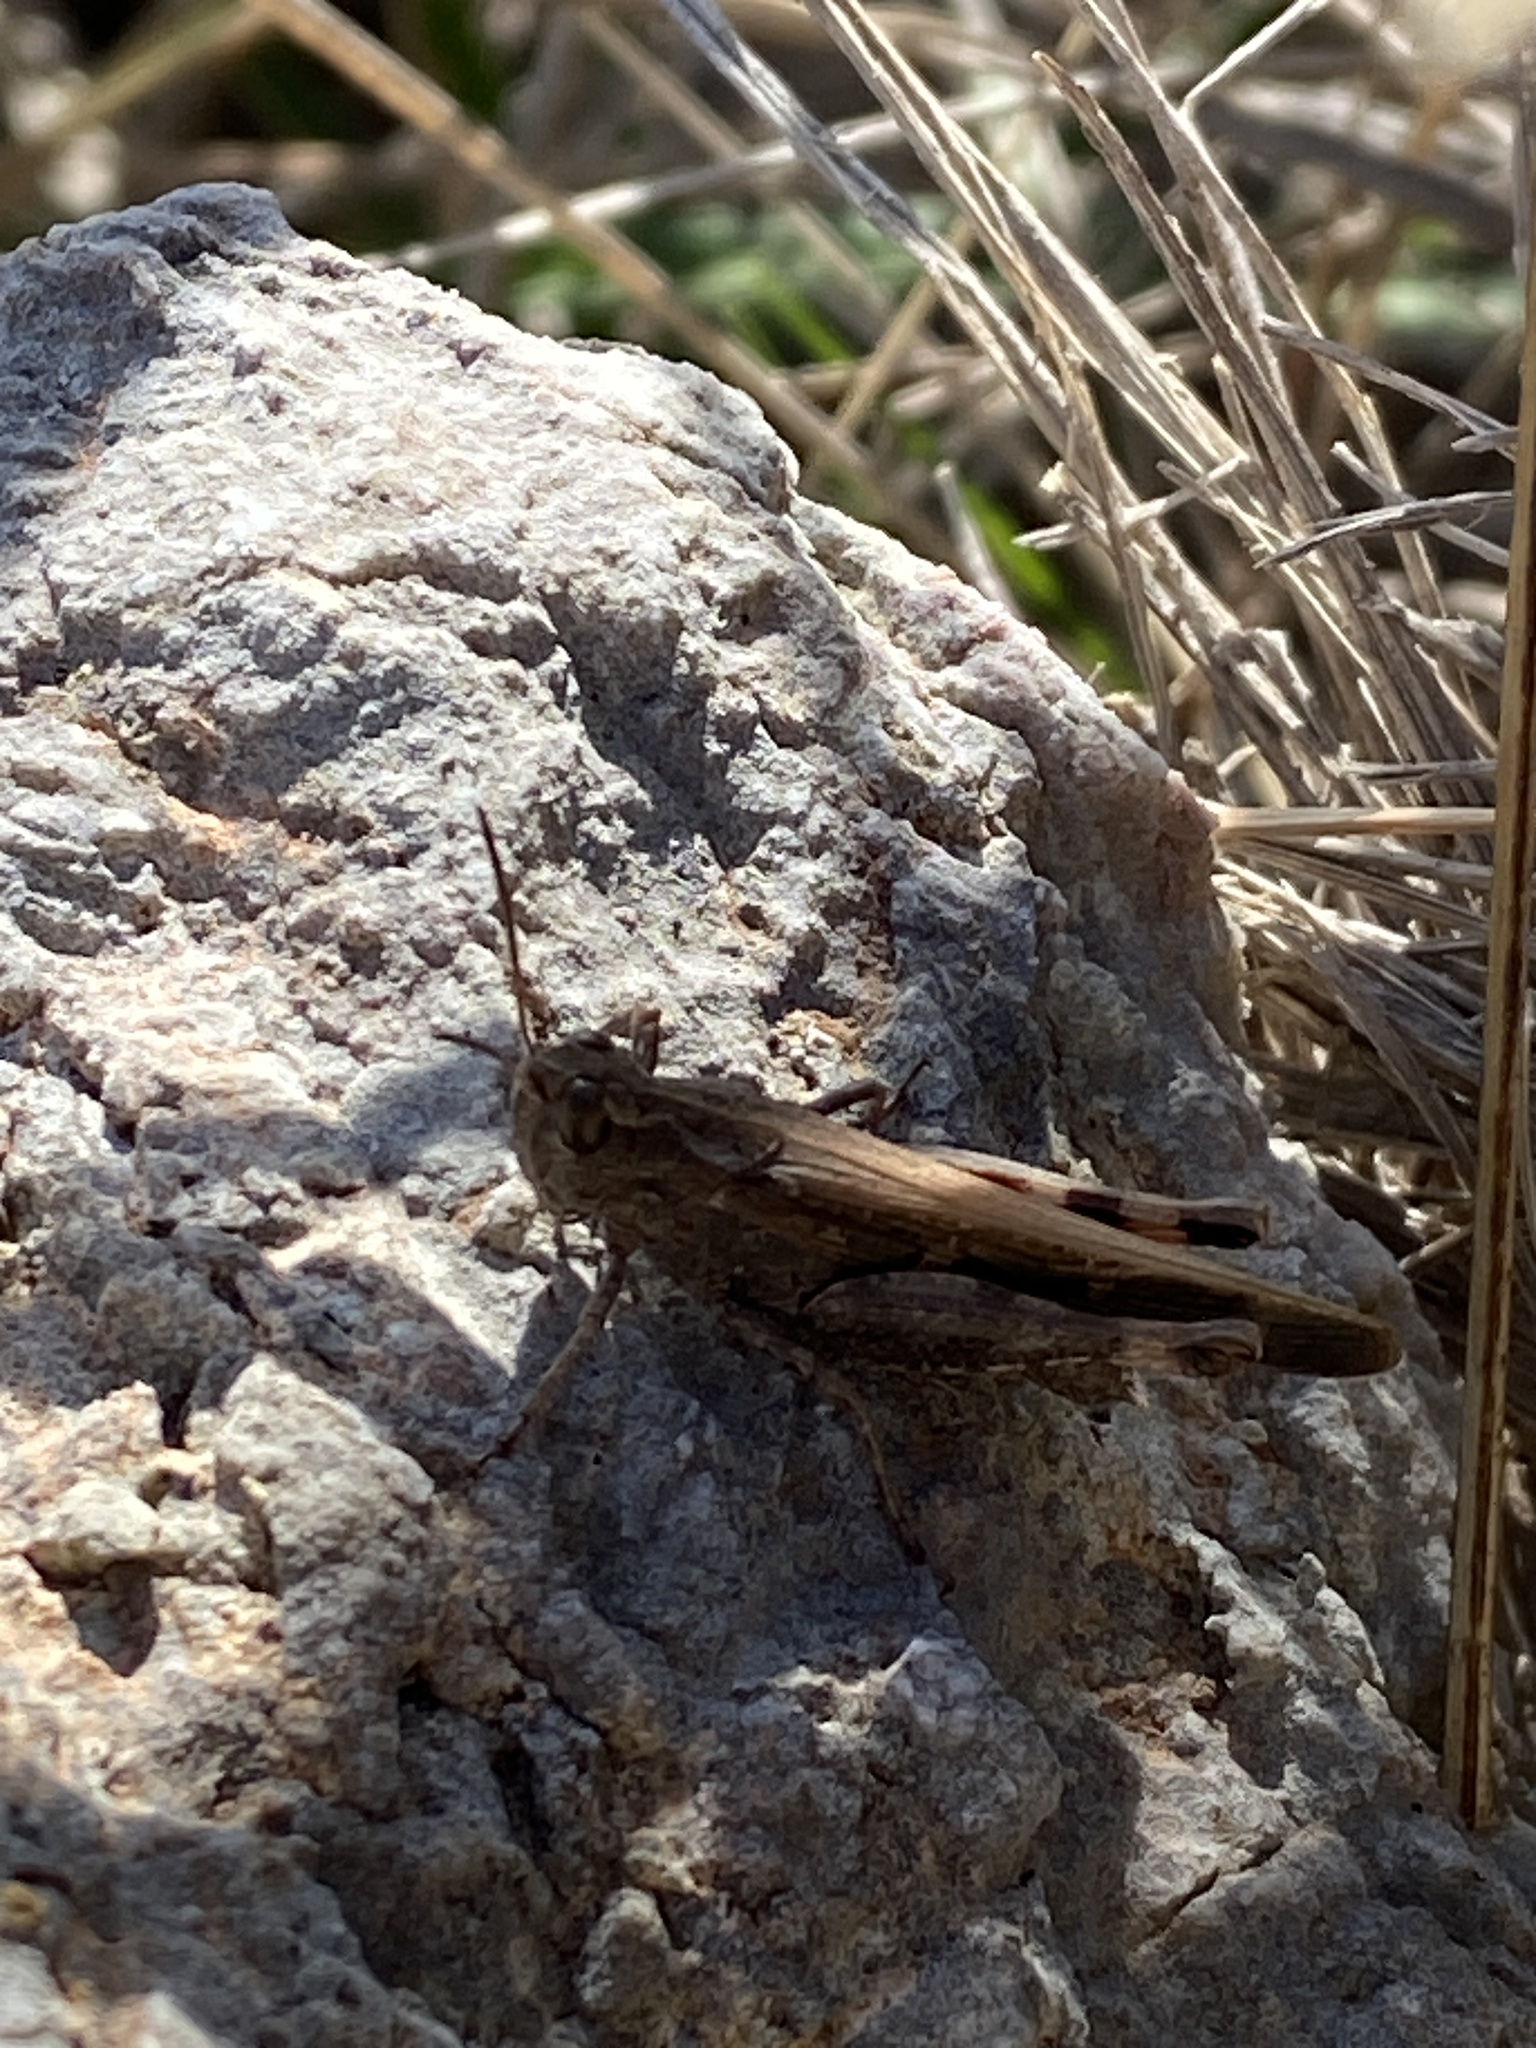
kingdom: Animalia
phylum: Arthropoda
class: Insecta
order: Orthoptera
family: Acrididae
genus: Aiolopus
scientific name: Aiolopus strepens
